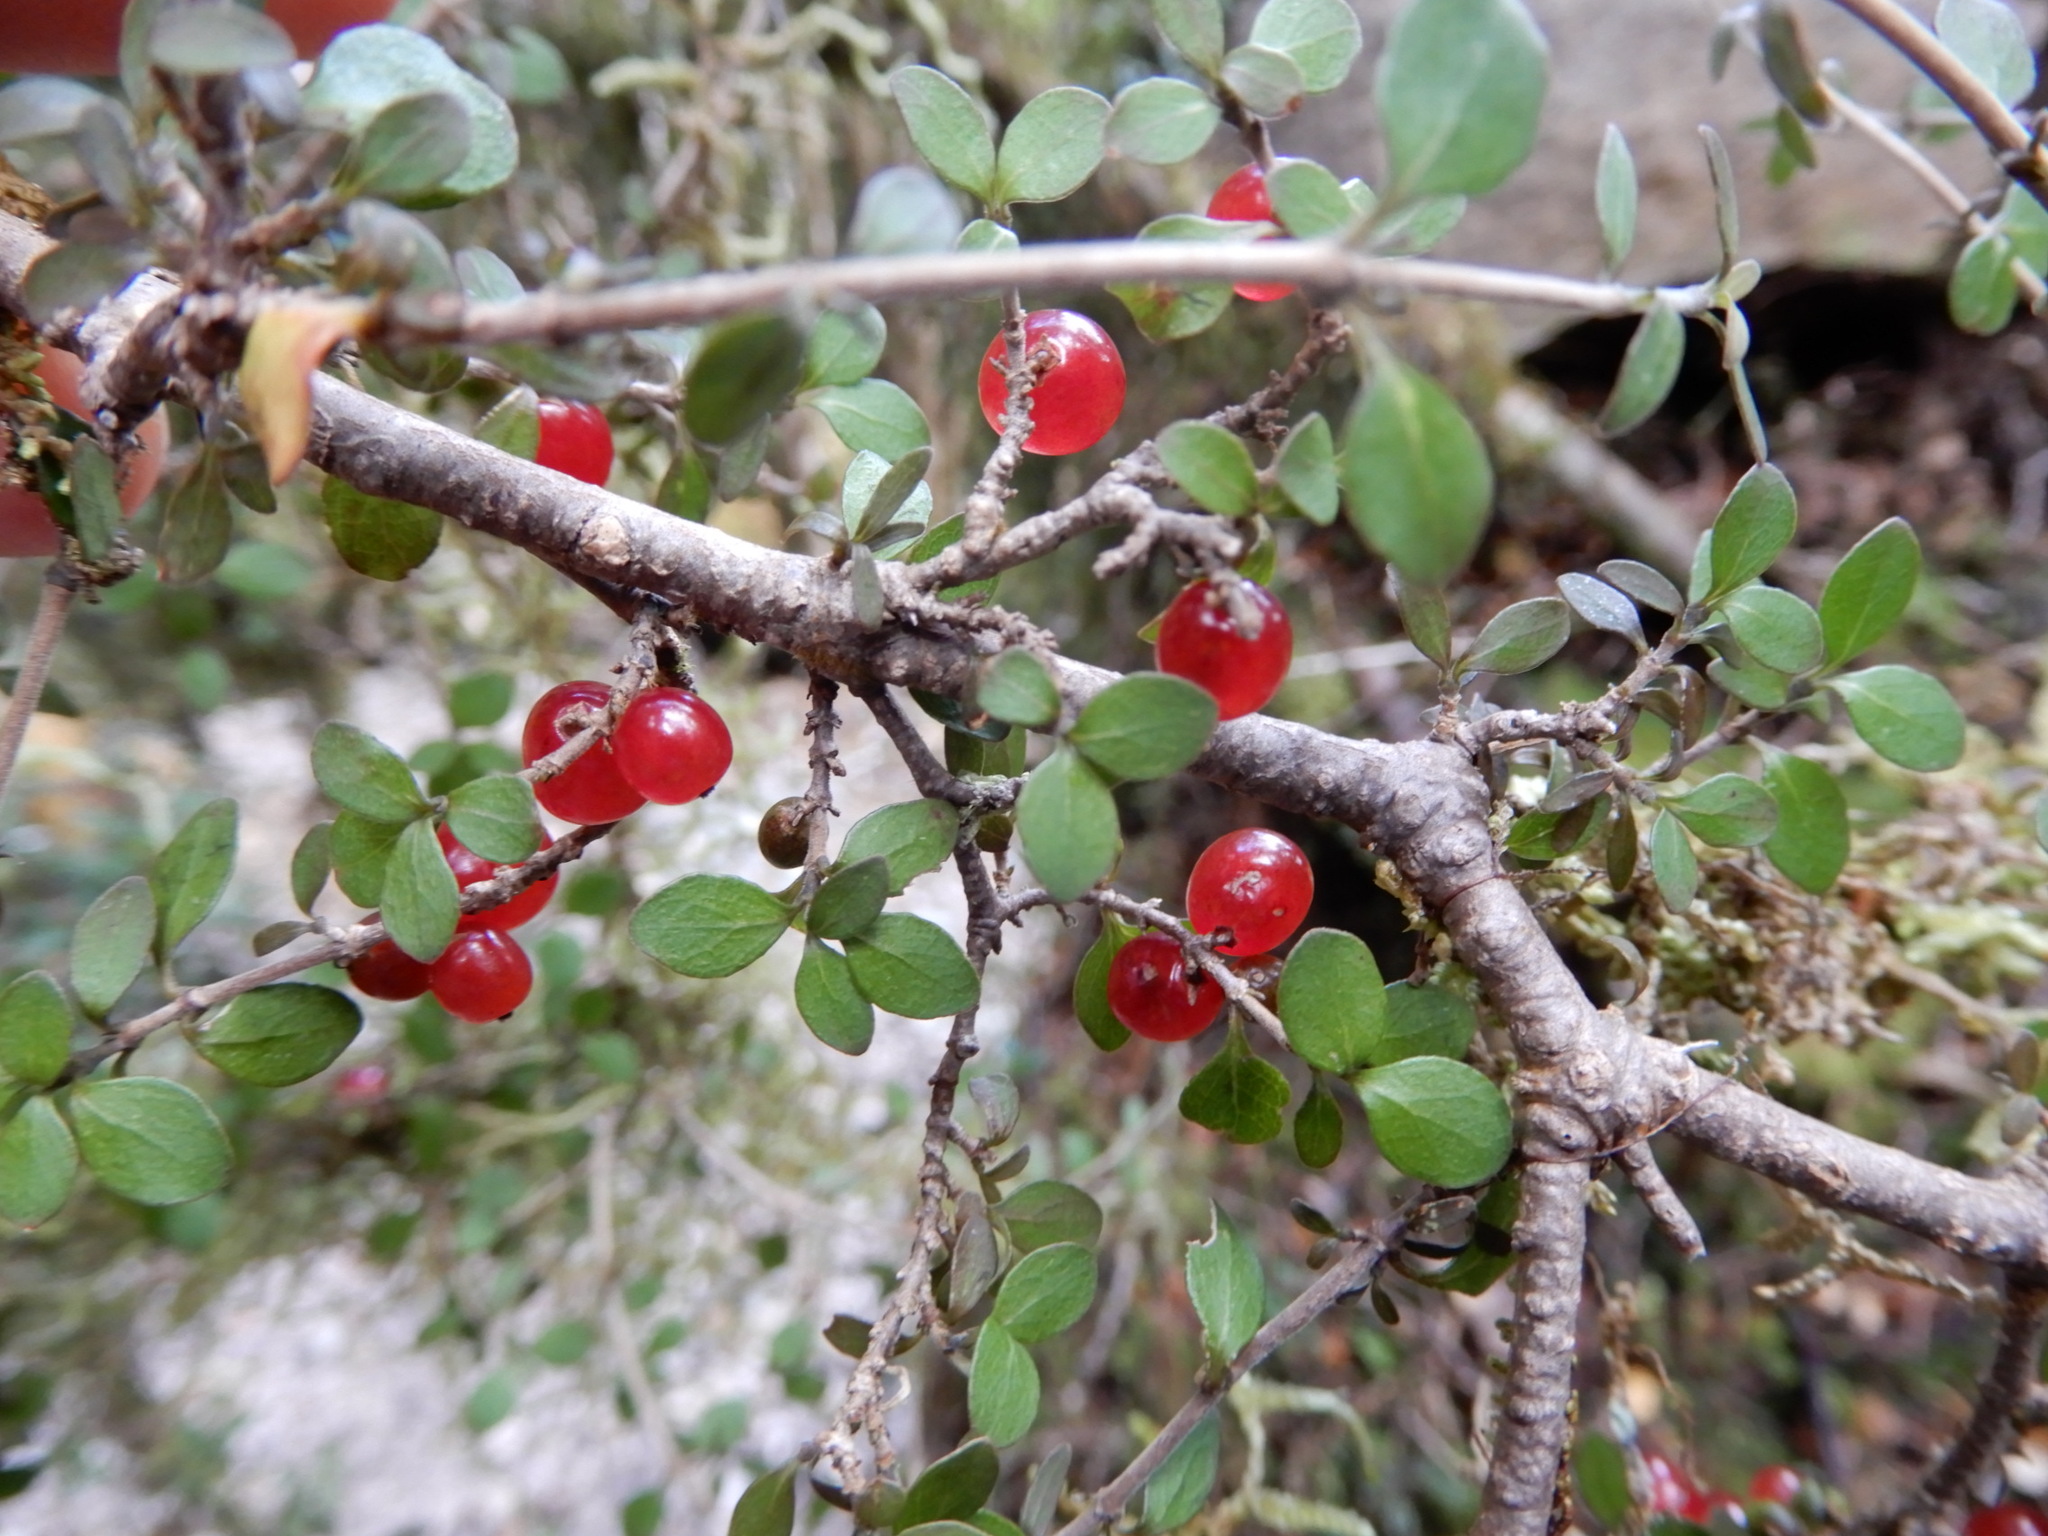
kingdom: Plantae
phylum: Tracheophyta
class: Magnoliopsida
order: Gentianales
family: Rubiaceae
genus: Coprosma
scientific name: Coprosma rhamnoides
